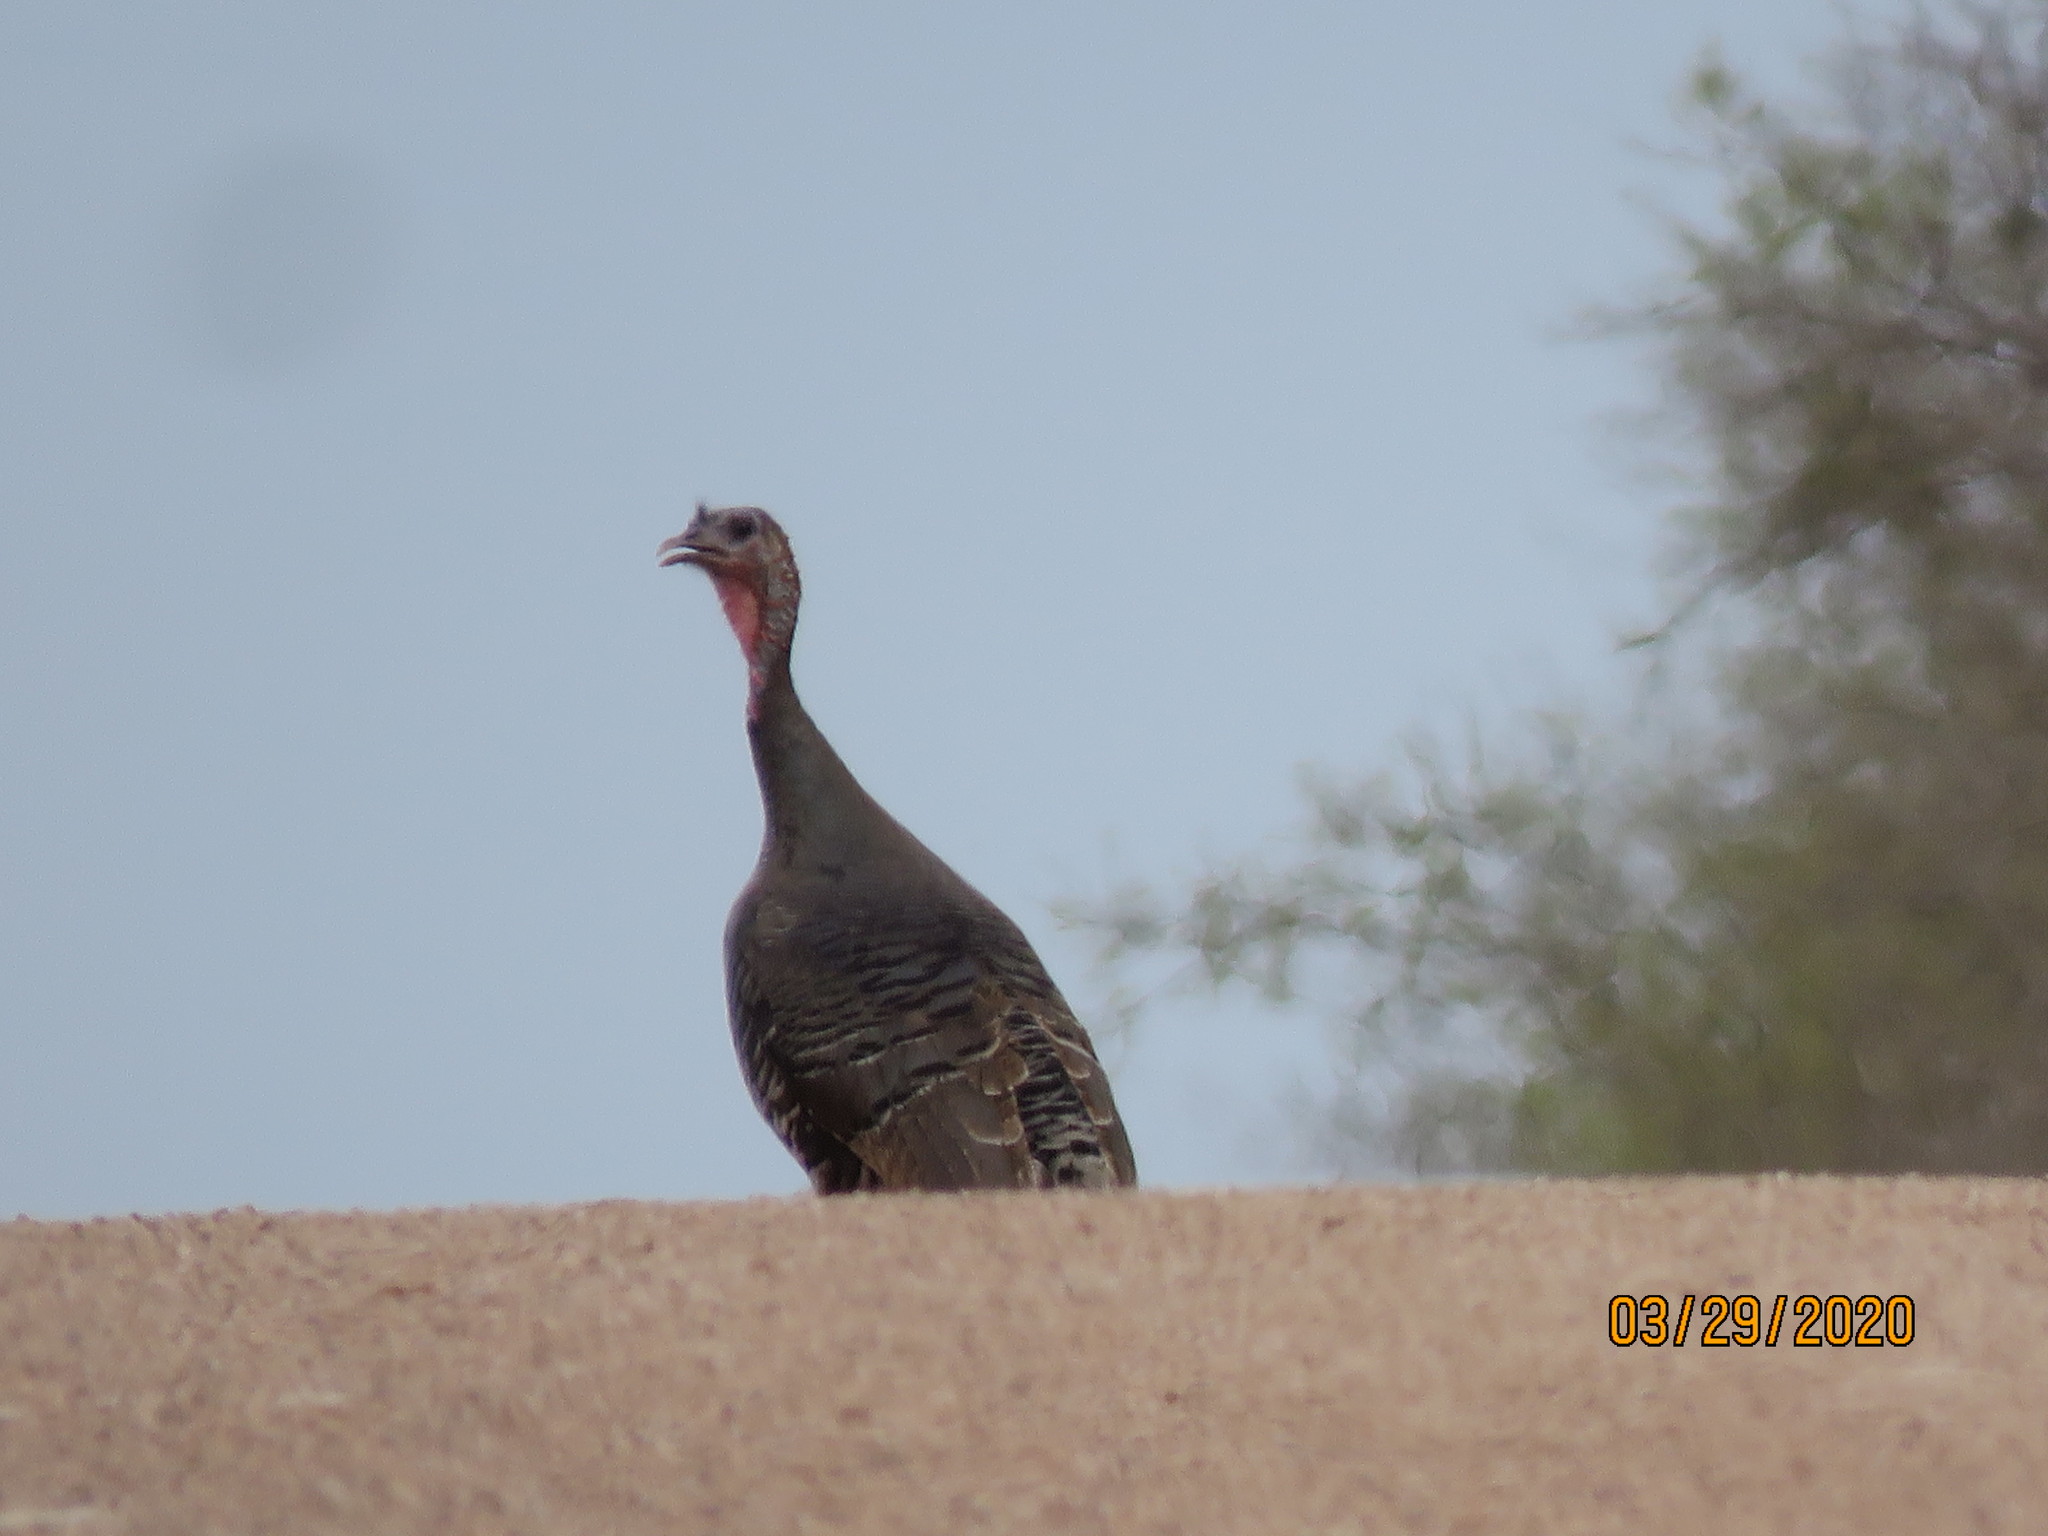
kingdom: Animalia
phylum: Chordata
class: Aves
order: Galliformes
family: Phasianidae
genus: Meleagris
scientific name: Meleagris gallopavo
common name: Wild turkey
